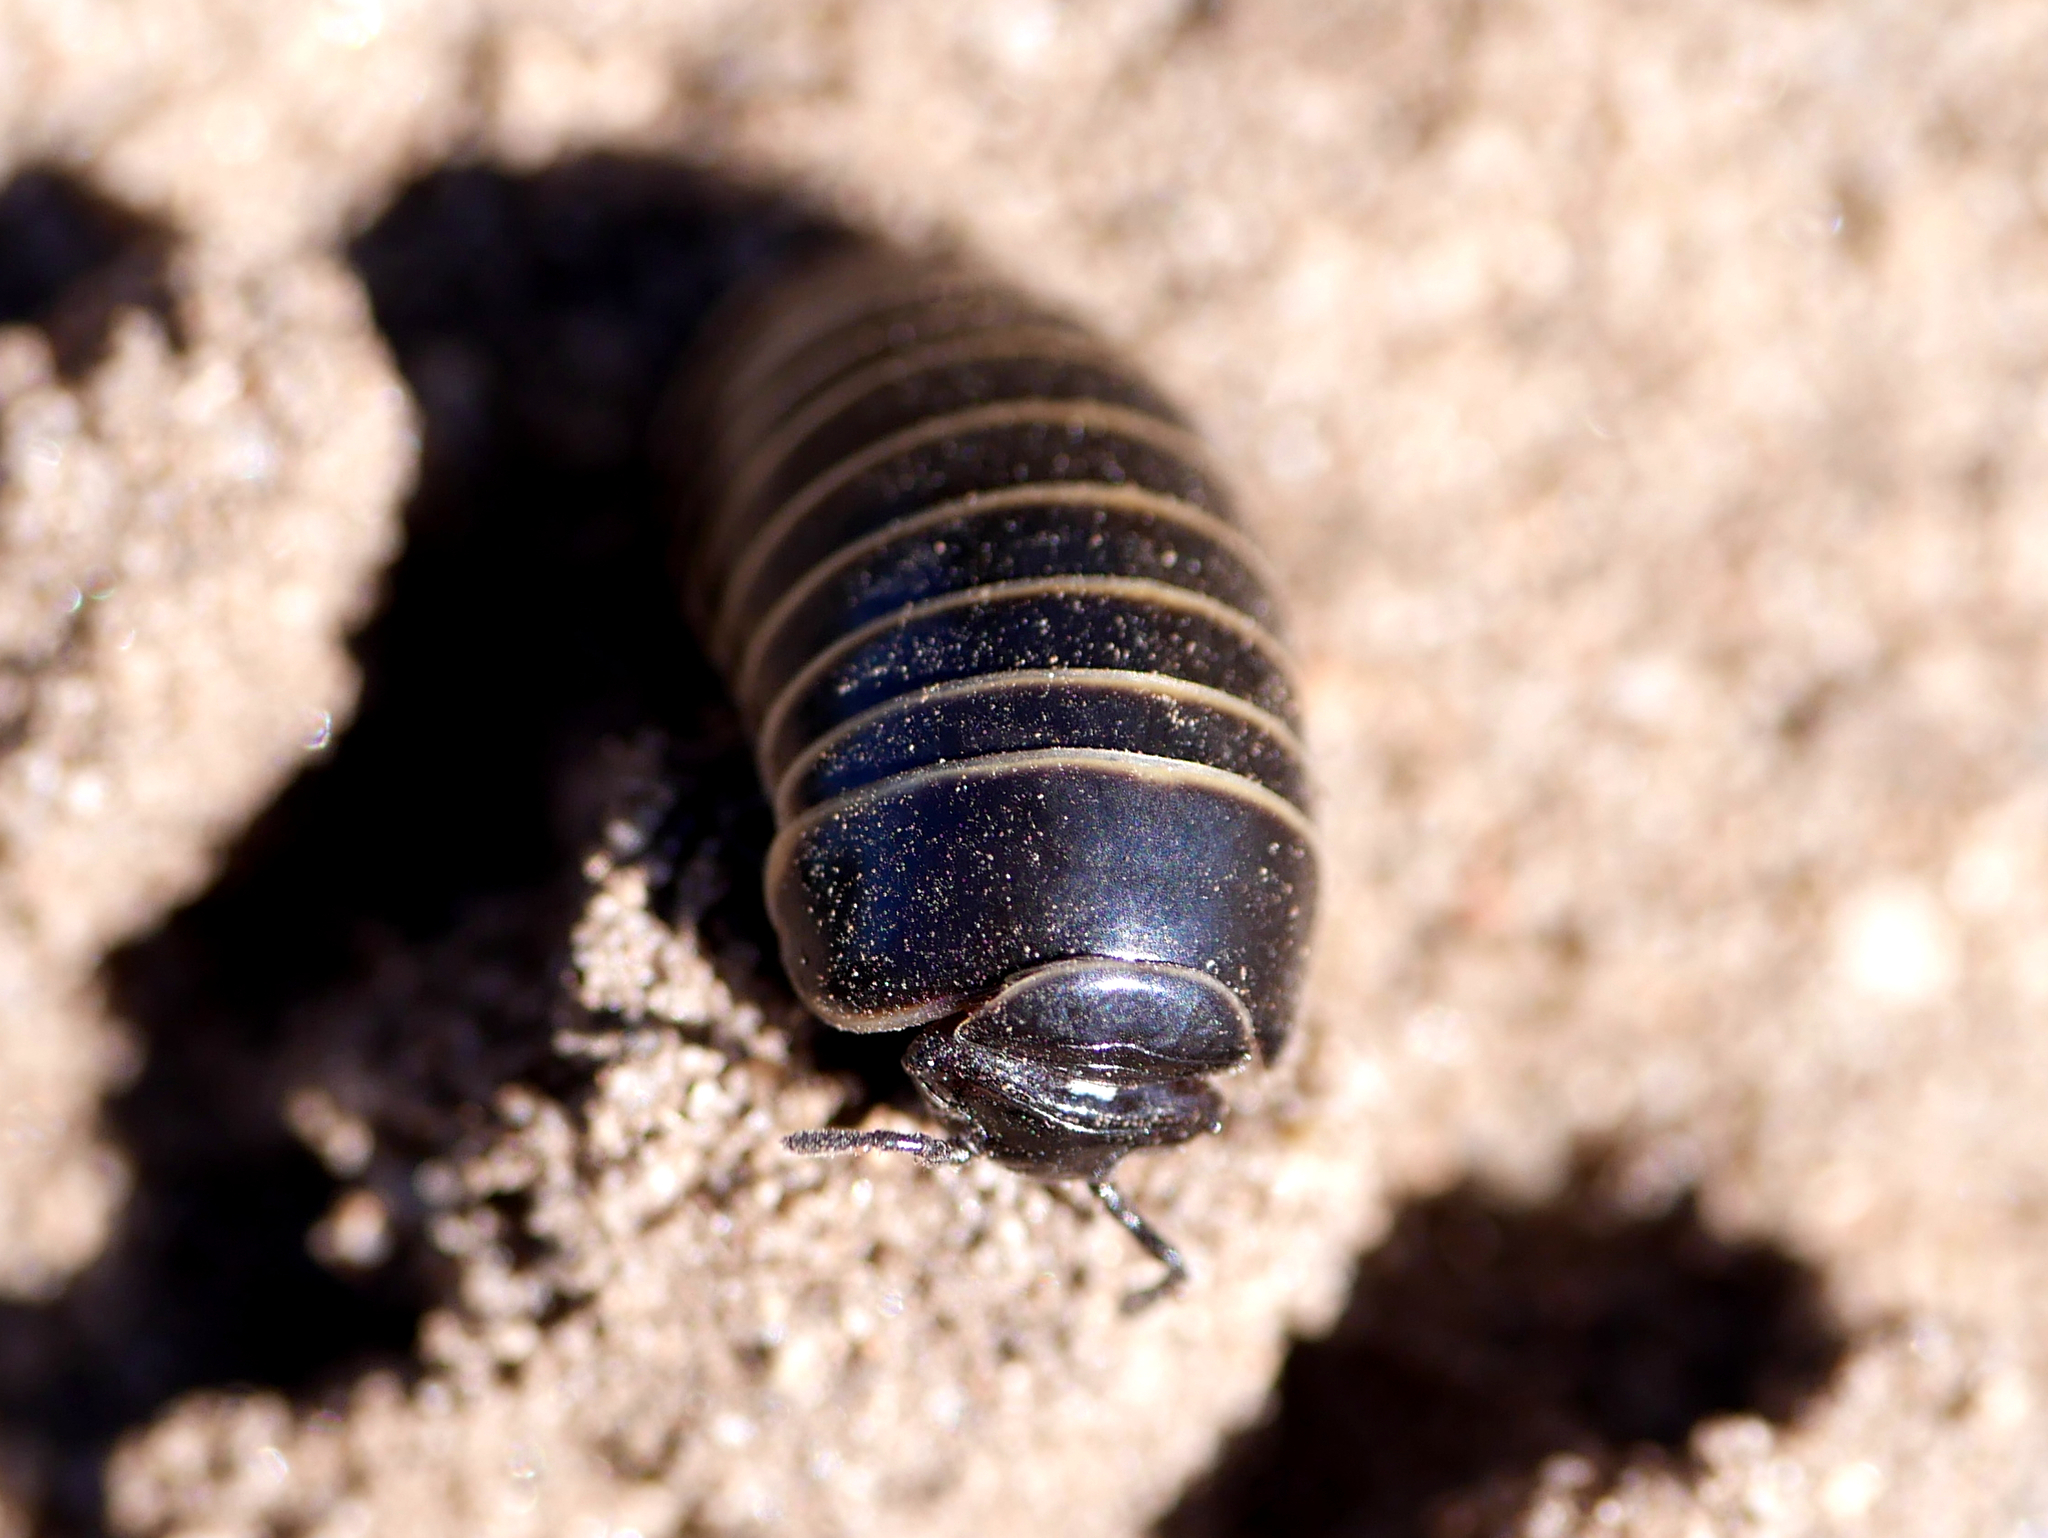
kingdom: Animalia
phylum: Arthropoda
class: Diplopoda
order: Glomerida
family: Glomeridae
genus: Glomeris
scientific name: Glomeris marginata
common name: Bordered pill millipede
